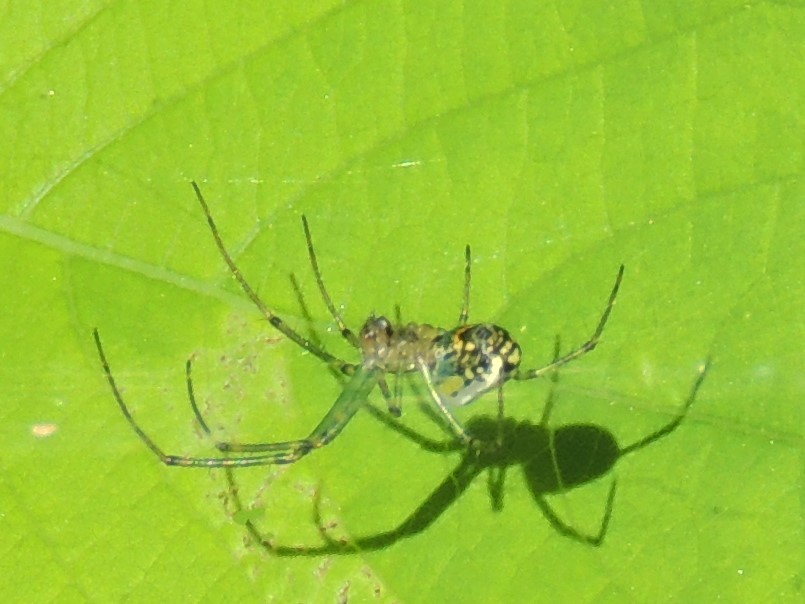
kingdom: Animalia
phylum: Arthropoda
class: Arachnida
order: Araneae
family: Tetragnathidae
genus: Leucauge
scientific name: Leucauge venusta
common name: Longjawed orb weavers
